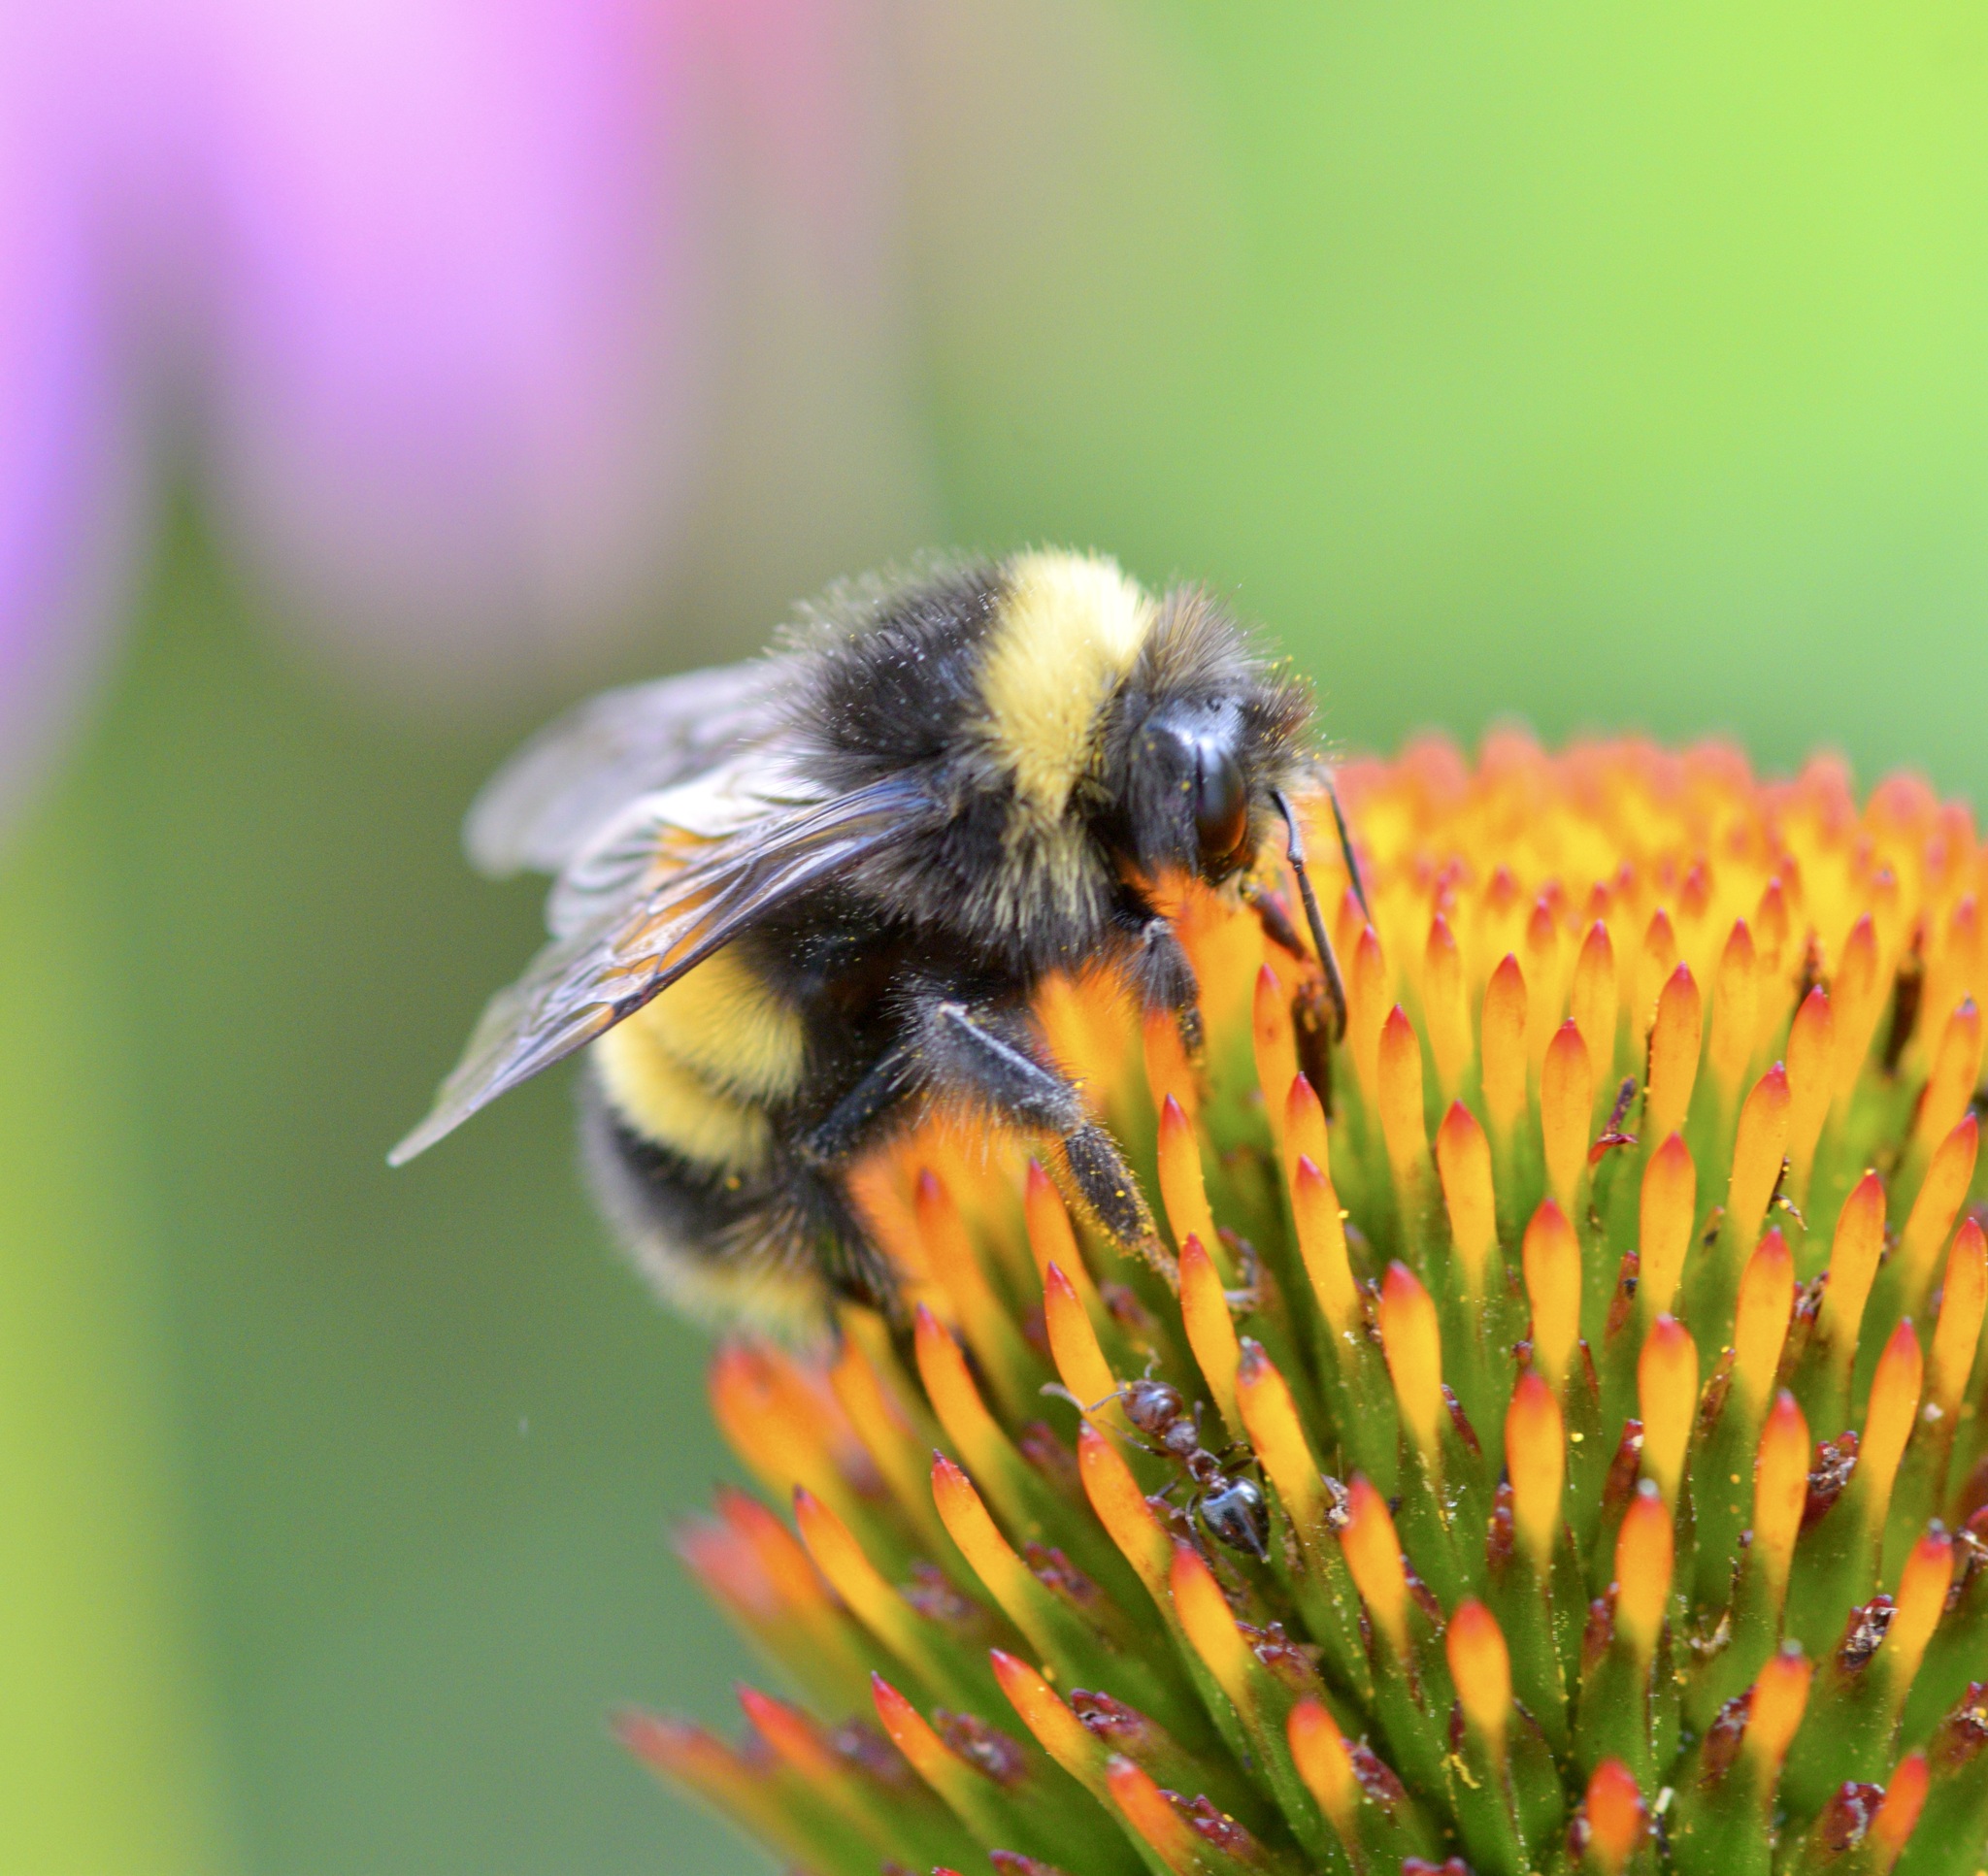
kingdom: Animalia
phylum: Arthropoda
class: Insecta
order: Hymenoptera
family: Apidae
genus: Bombus
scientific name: Bombus terricola
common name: Yellow-banded bumble bee
